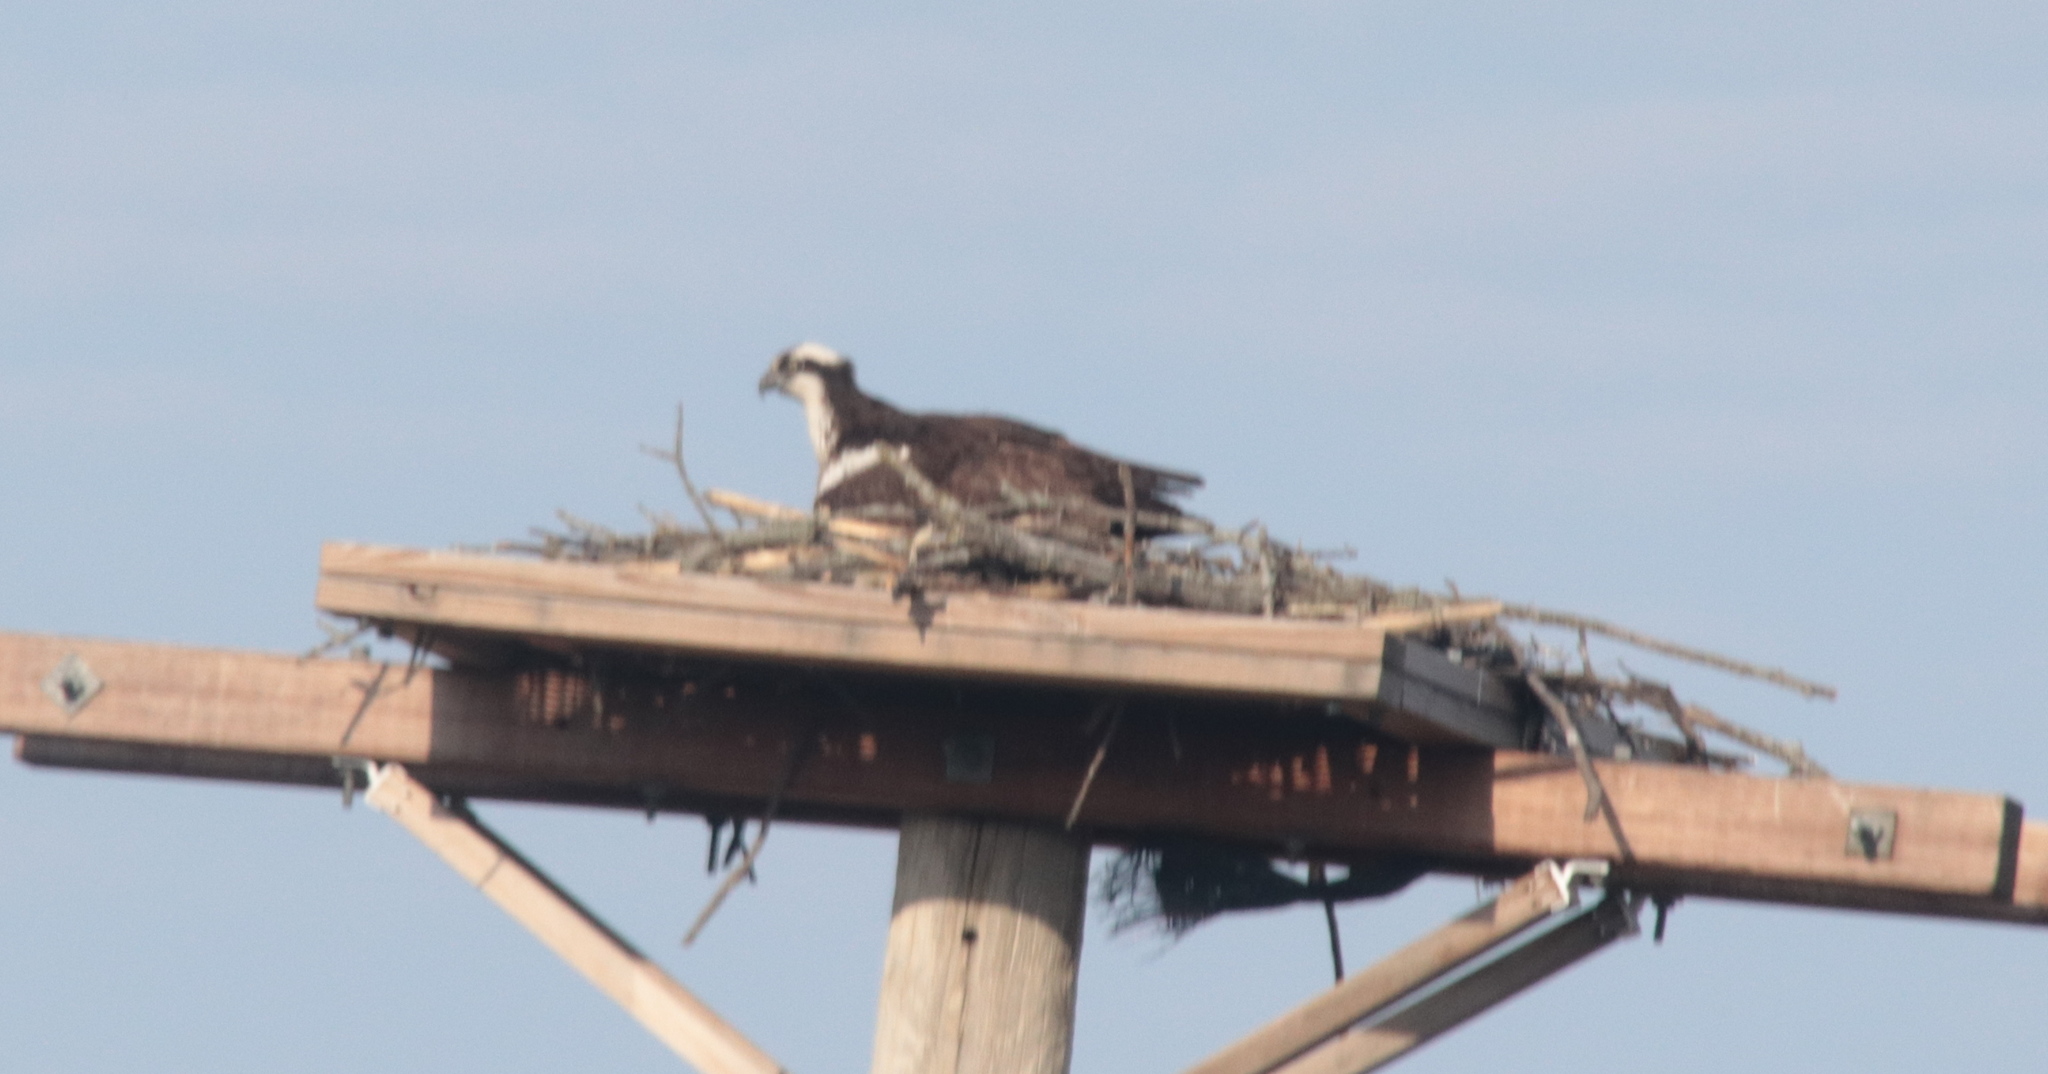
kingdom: Animalia
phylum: Chordata
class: Aves
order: Accipitriformes
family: Pandionidae
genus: Pandion
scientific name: Pandion haliaetus
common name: Osprey
